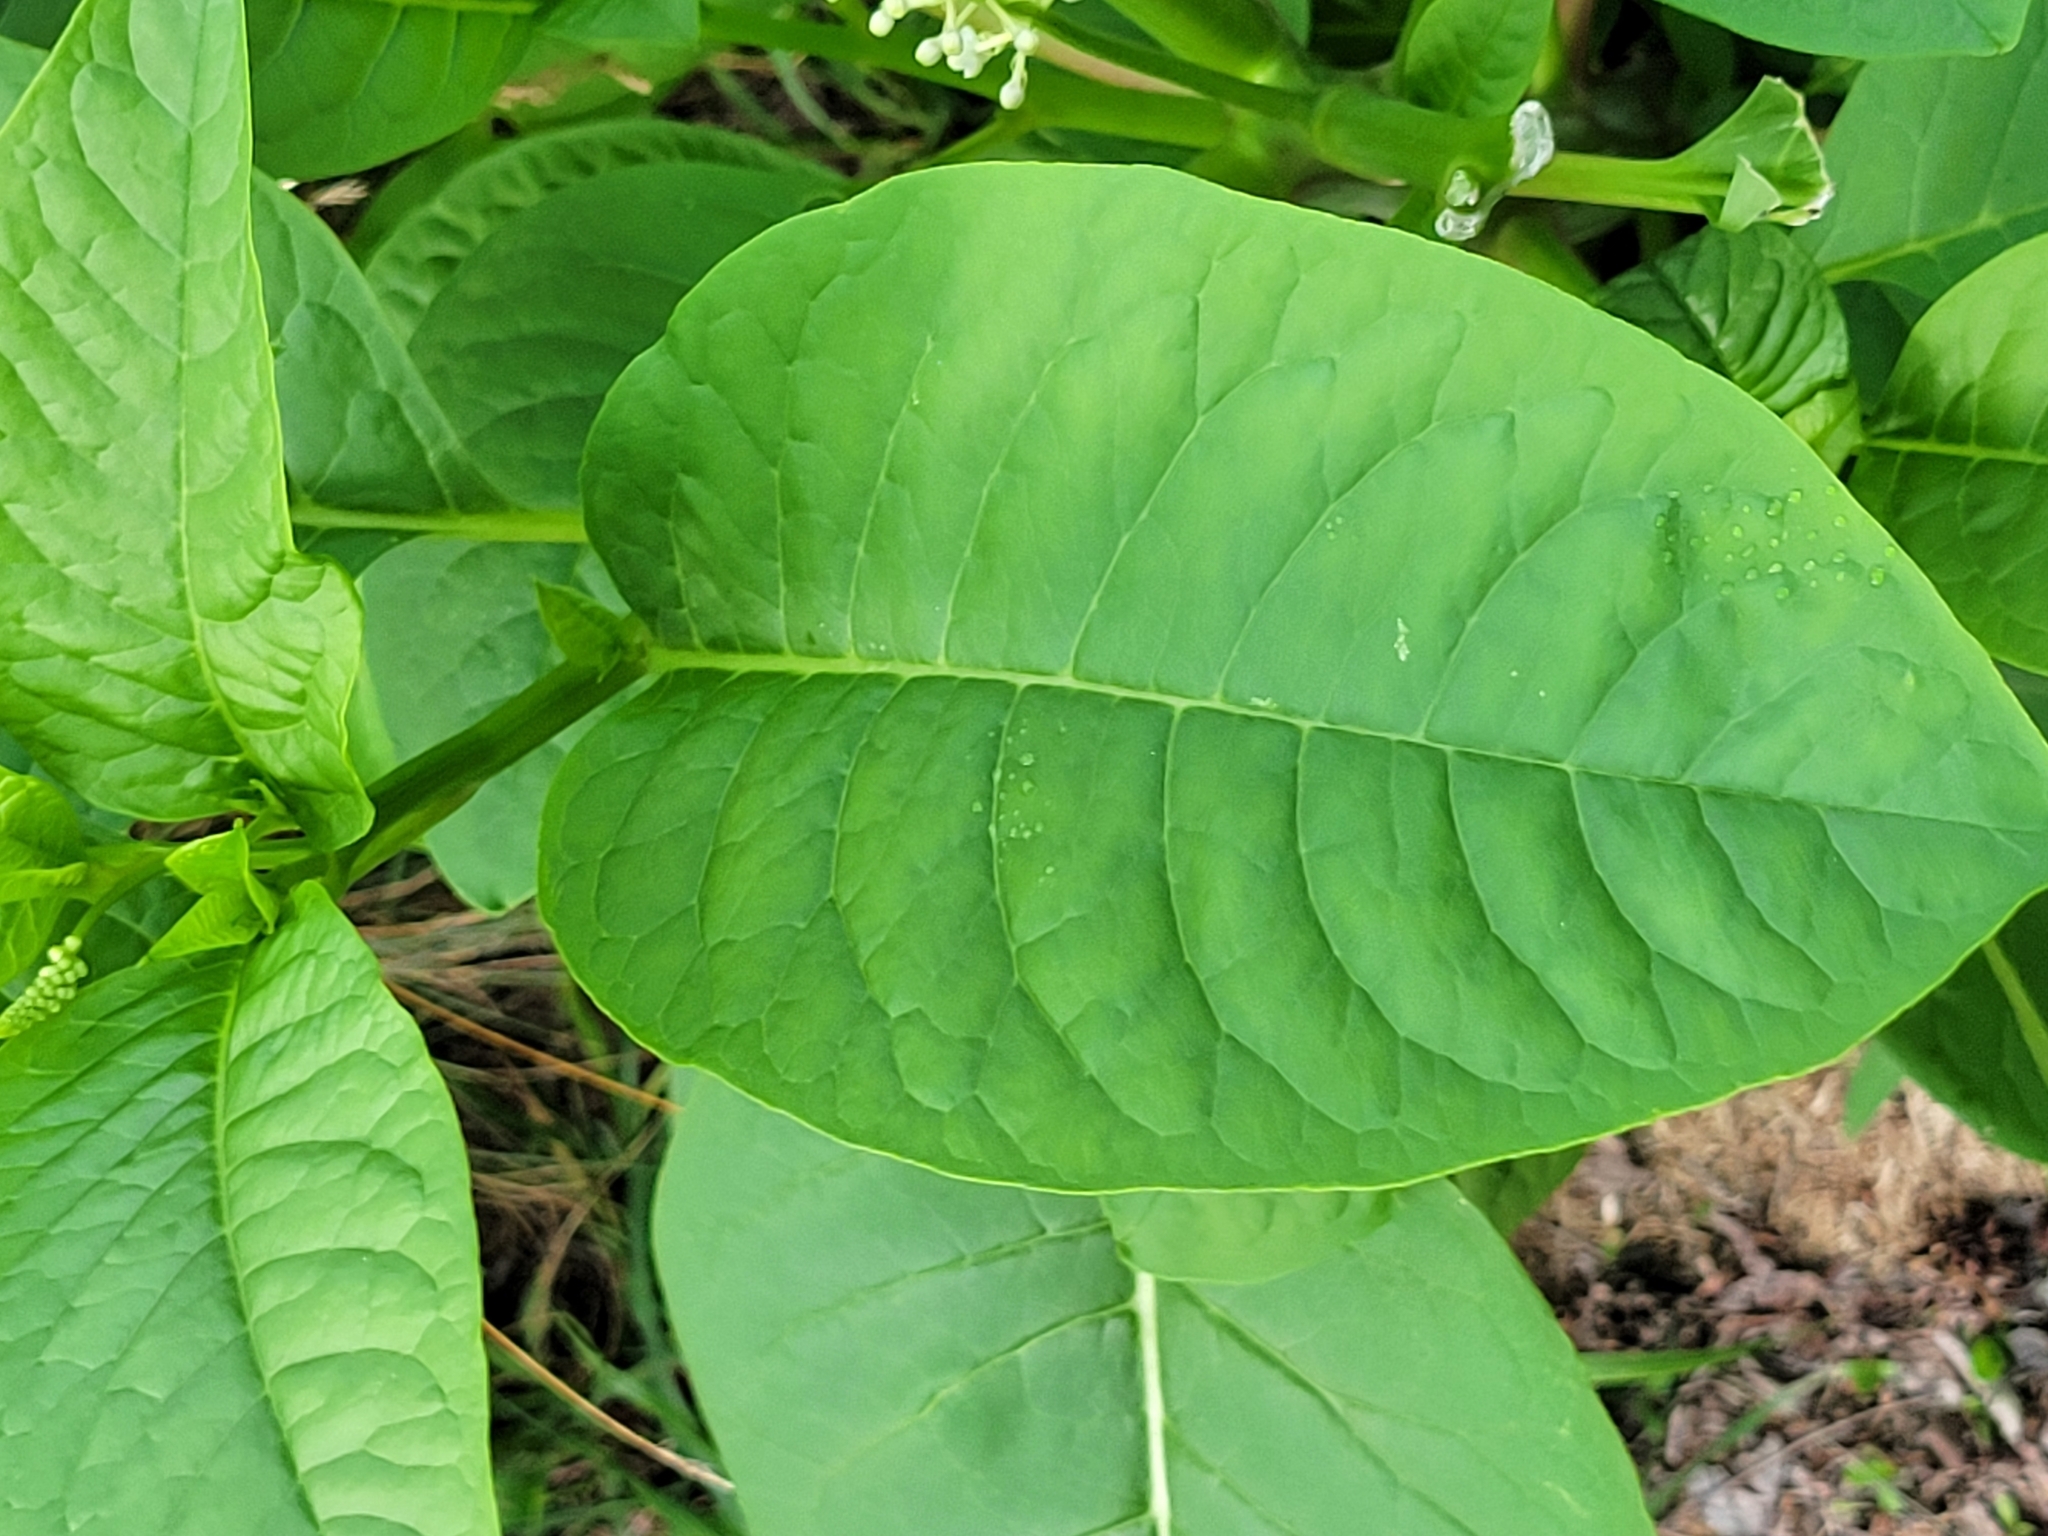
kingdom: Plantae
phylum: Tracheophyta
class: Magnoliopsida
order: Caryophyllales
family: Phytolaccaceae
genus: Phytolacca
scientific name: Phytolacca americana
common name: American pokeweed
